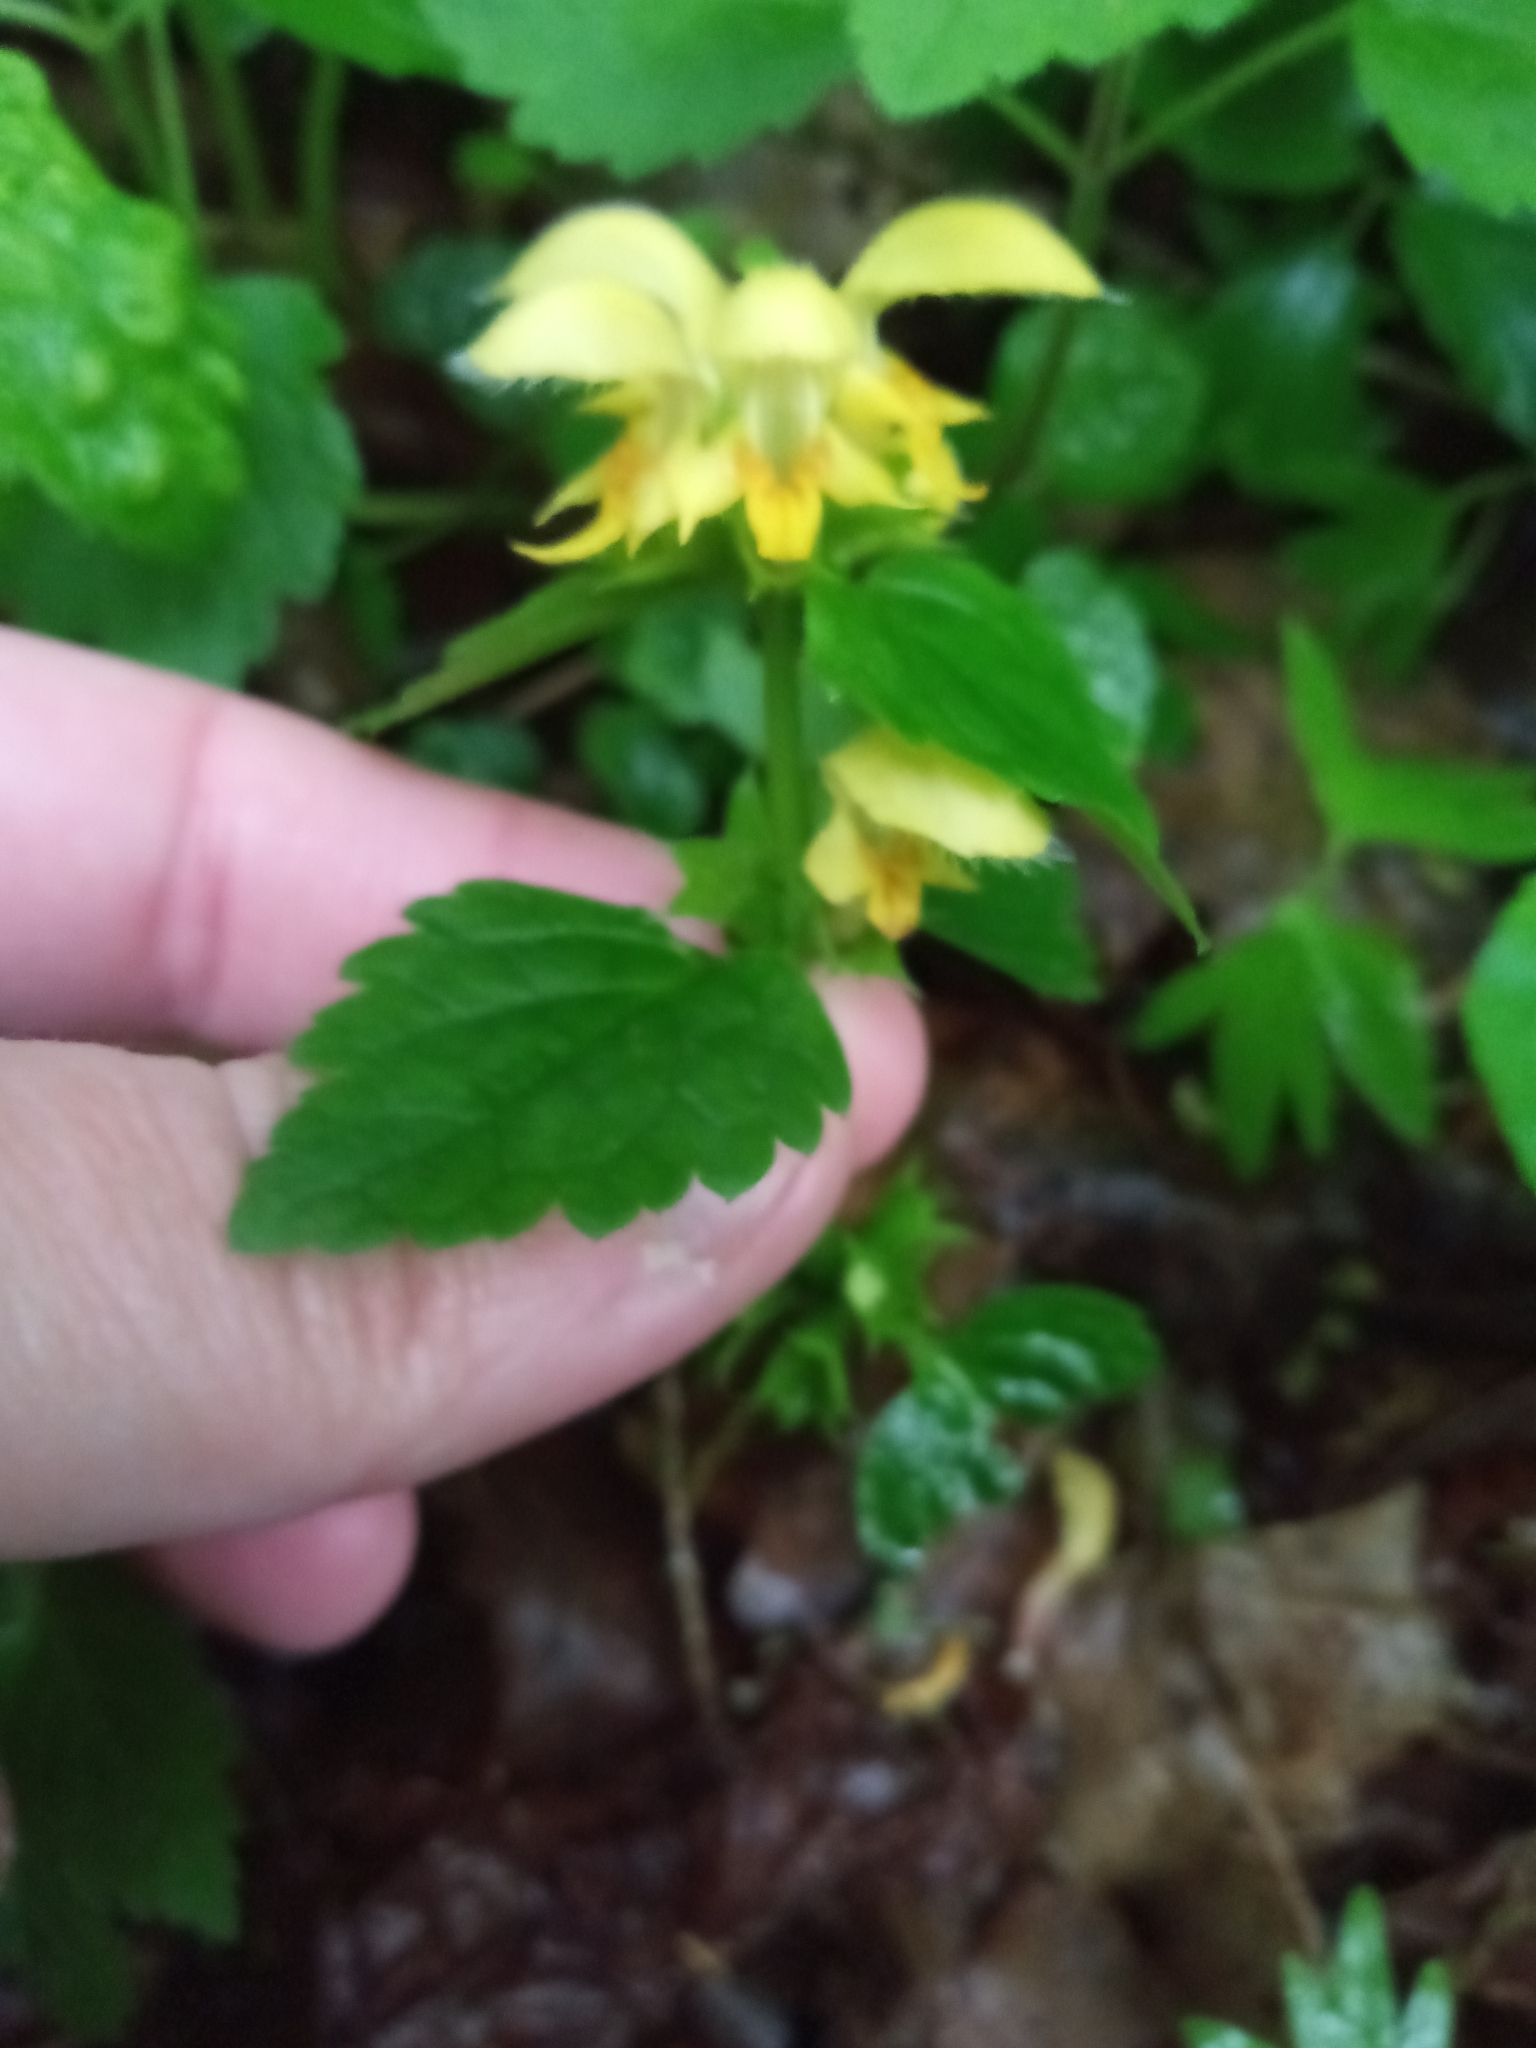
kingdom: Plantae
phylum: Tracheophyta
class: Magnoliopsida
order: Lamiales
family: Lamiaceae
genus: Lamium
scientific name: Lamium galeobdolon
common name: Yellow archangel
